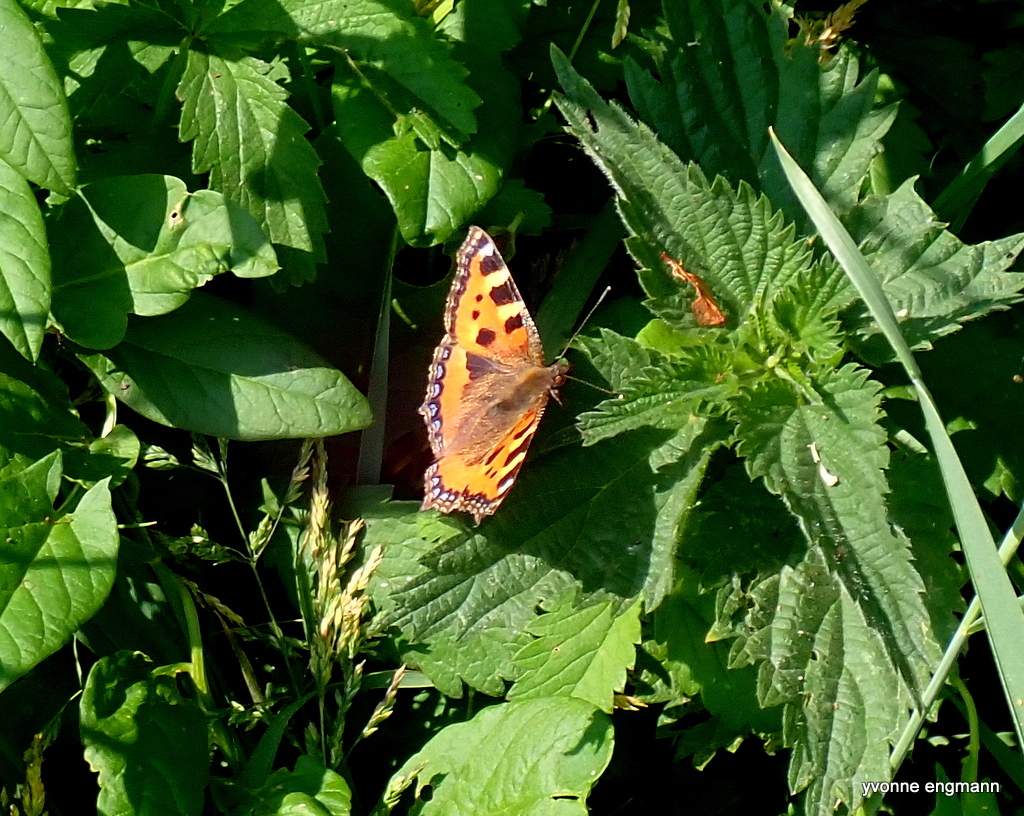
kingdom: Animalia
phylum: Arthropoda
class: Insecta
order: Lepidoptera
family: Nymphalidae
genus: Aglais
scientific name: Aglais urticae
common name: Small tortoiseshell
